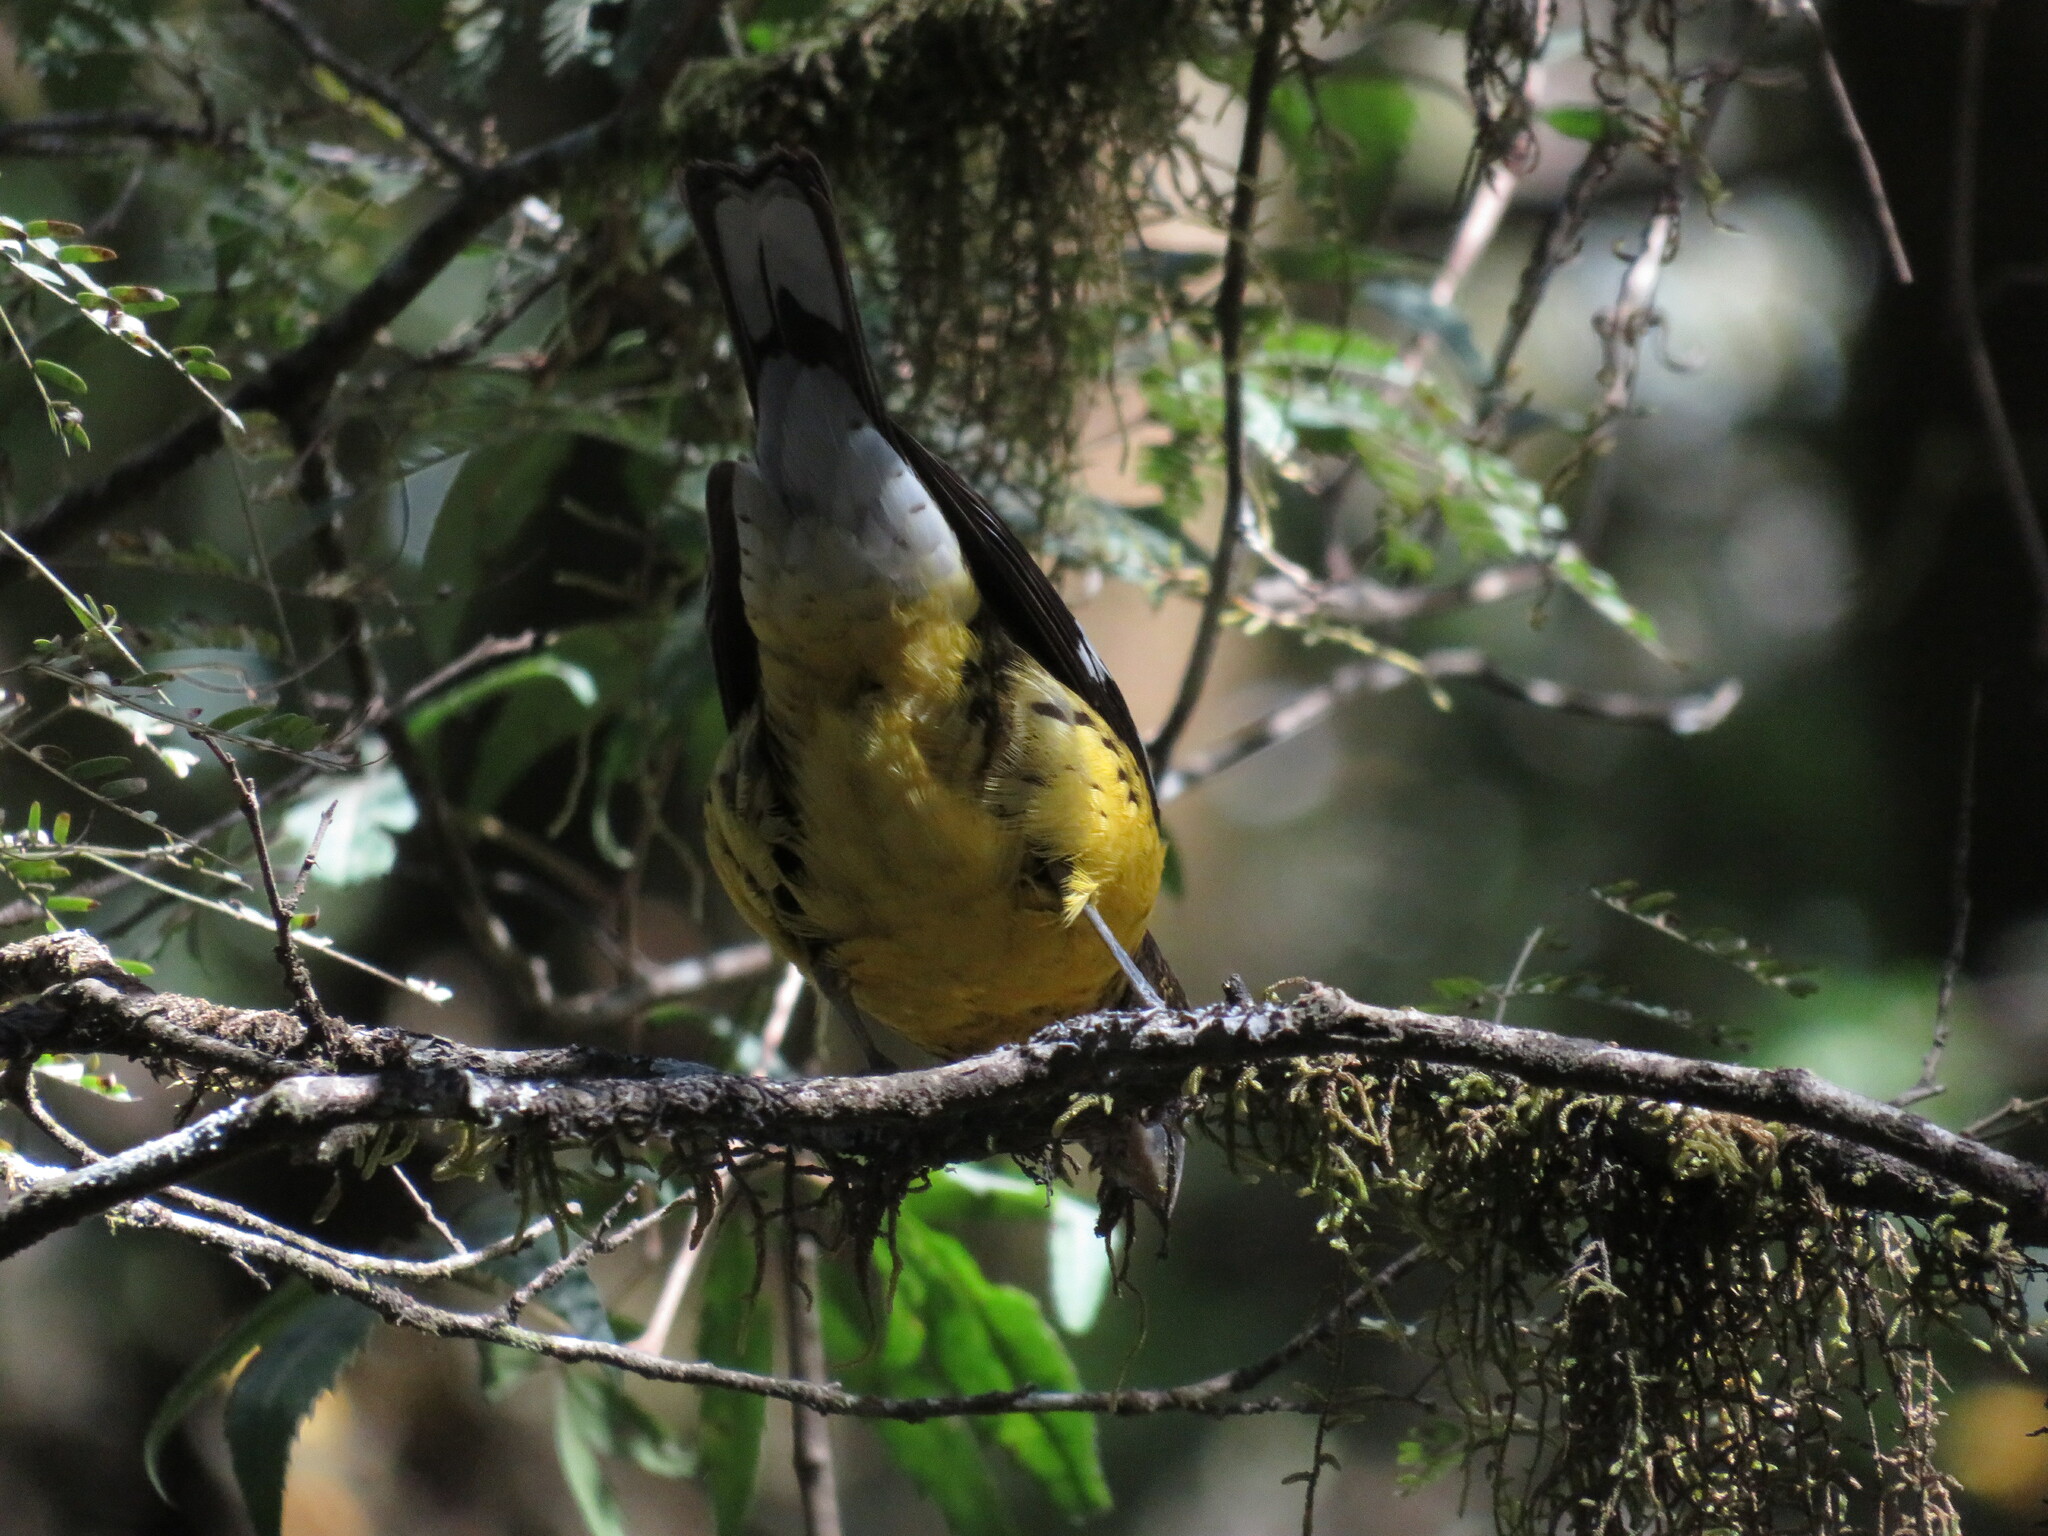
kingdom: Animalia
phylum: Chordata
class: Aves
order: Passeriformes
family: Cardinalidae
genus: Pheucticus
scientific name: Pheucticus aureoventris
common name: Black-backed grosbeak
